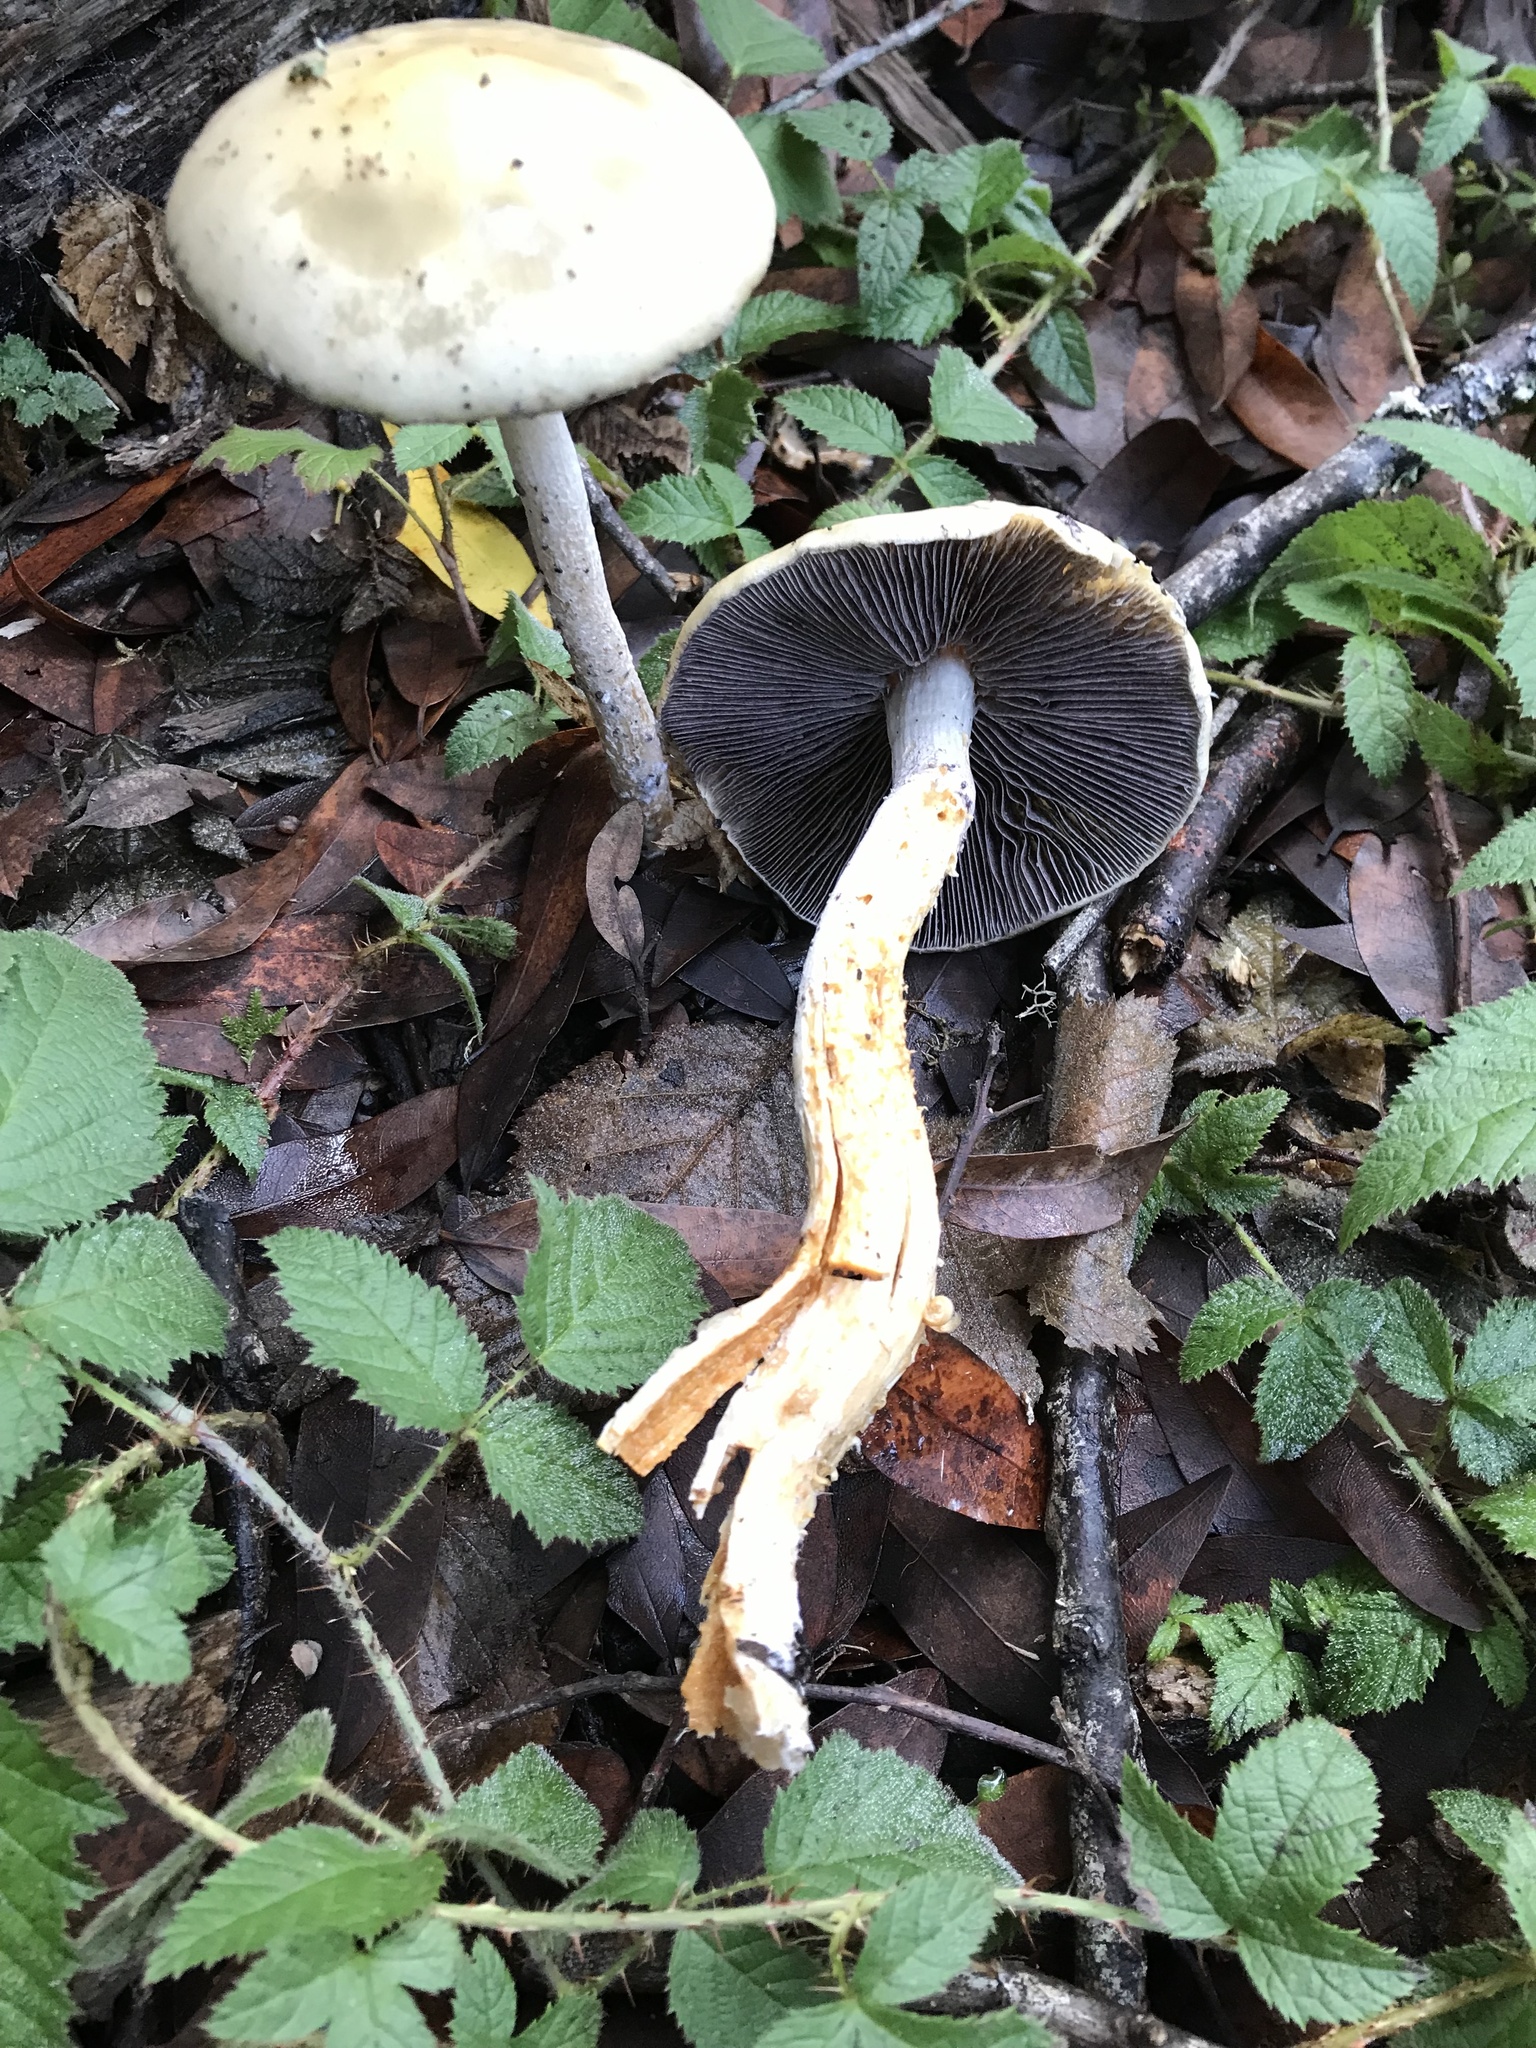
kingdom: Fungi
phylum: Basidiomycota
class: Agaricomycetes
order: Agaricales
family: Strophariaceae
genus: Stropharia
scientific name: Stropharia ambigua
